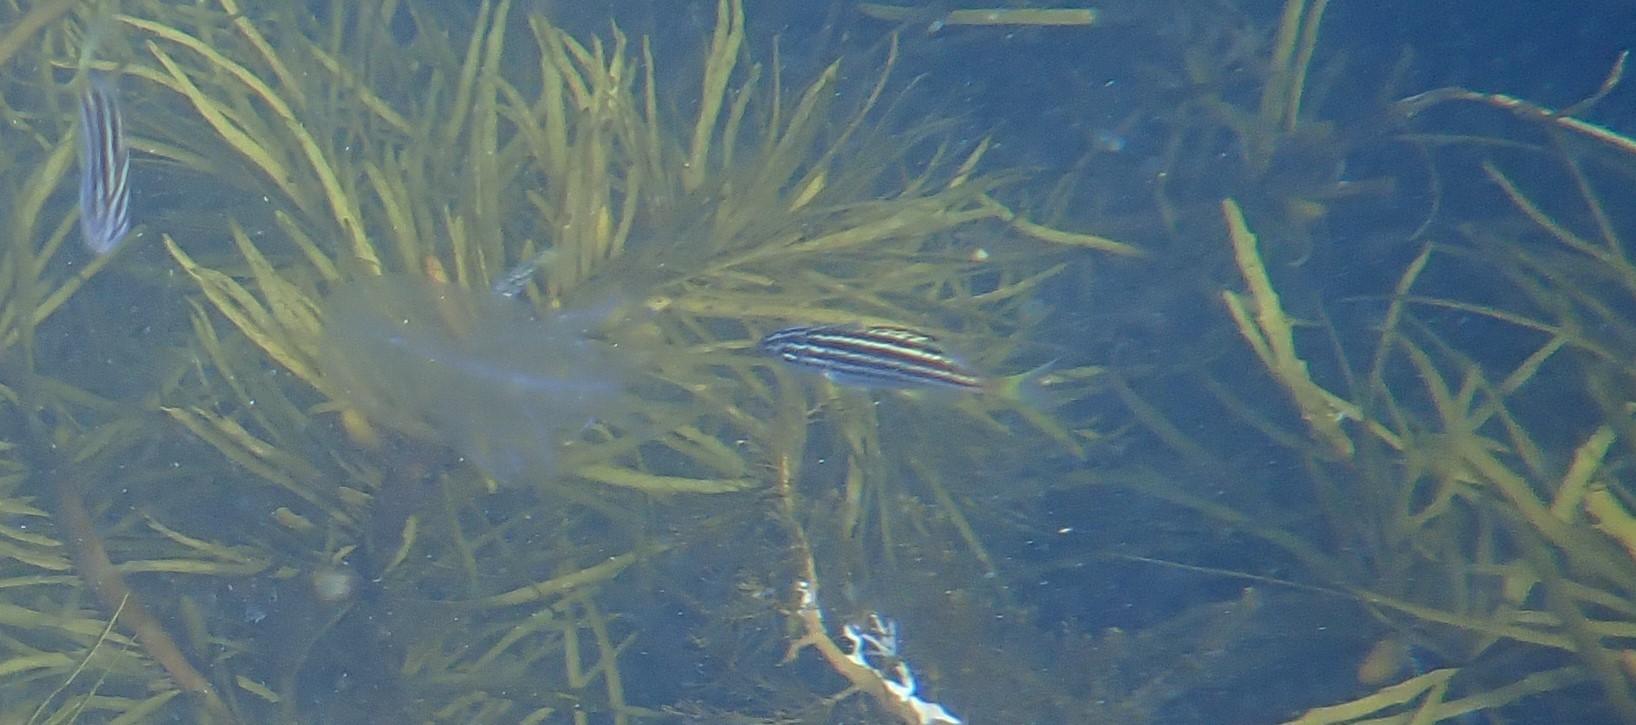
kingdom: Animalia
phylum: Chordata
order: Perciformes
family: Kyphosidae
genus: Atypichthys
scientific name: Atypichthys strigatus
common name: Australian mado
